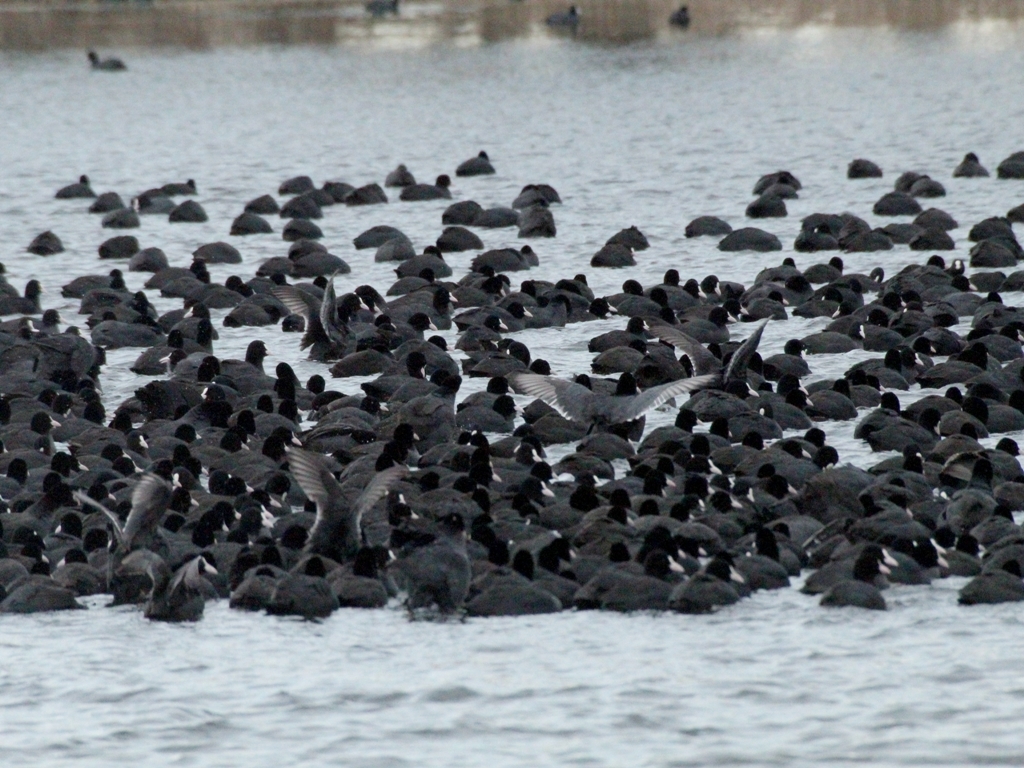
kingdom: Animalia
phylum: Chordata
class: Aves
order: Gruiformes
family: Rallidae
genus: Fulica
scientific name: Fulica atra
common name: Eurasian coot
